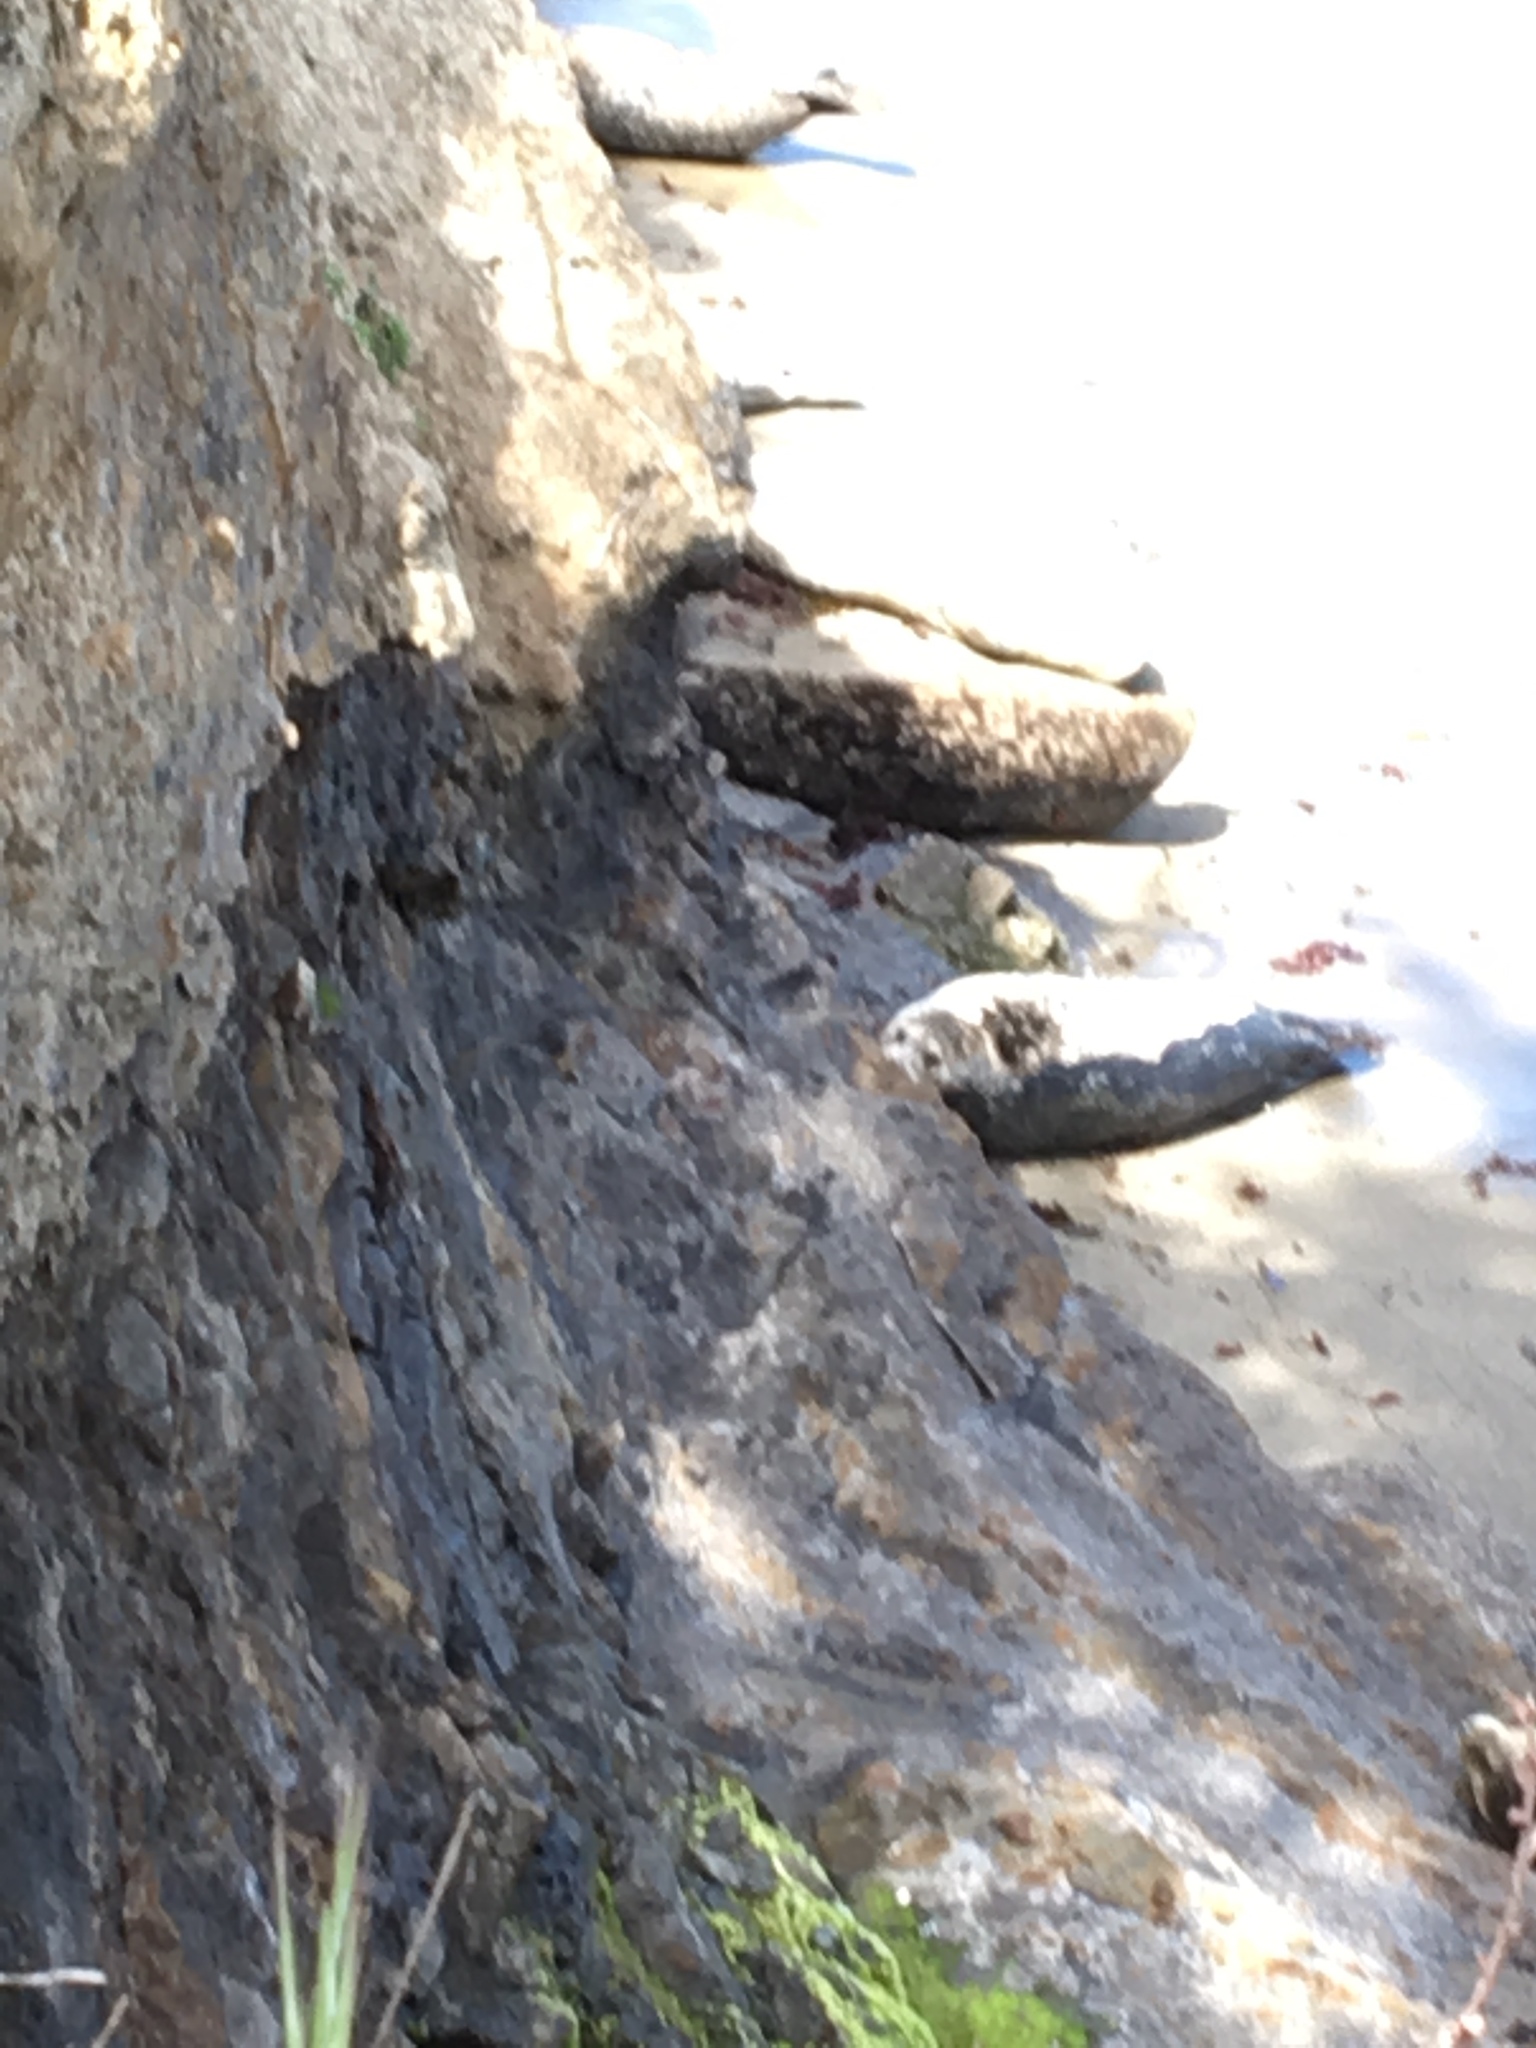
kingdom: Animalia
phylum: Chordata
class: Mammalia
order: Carnivora
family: Phocidae
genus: Phoca
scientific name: Phoca vitulina
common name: Harbor seal
